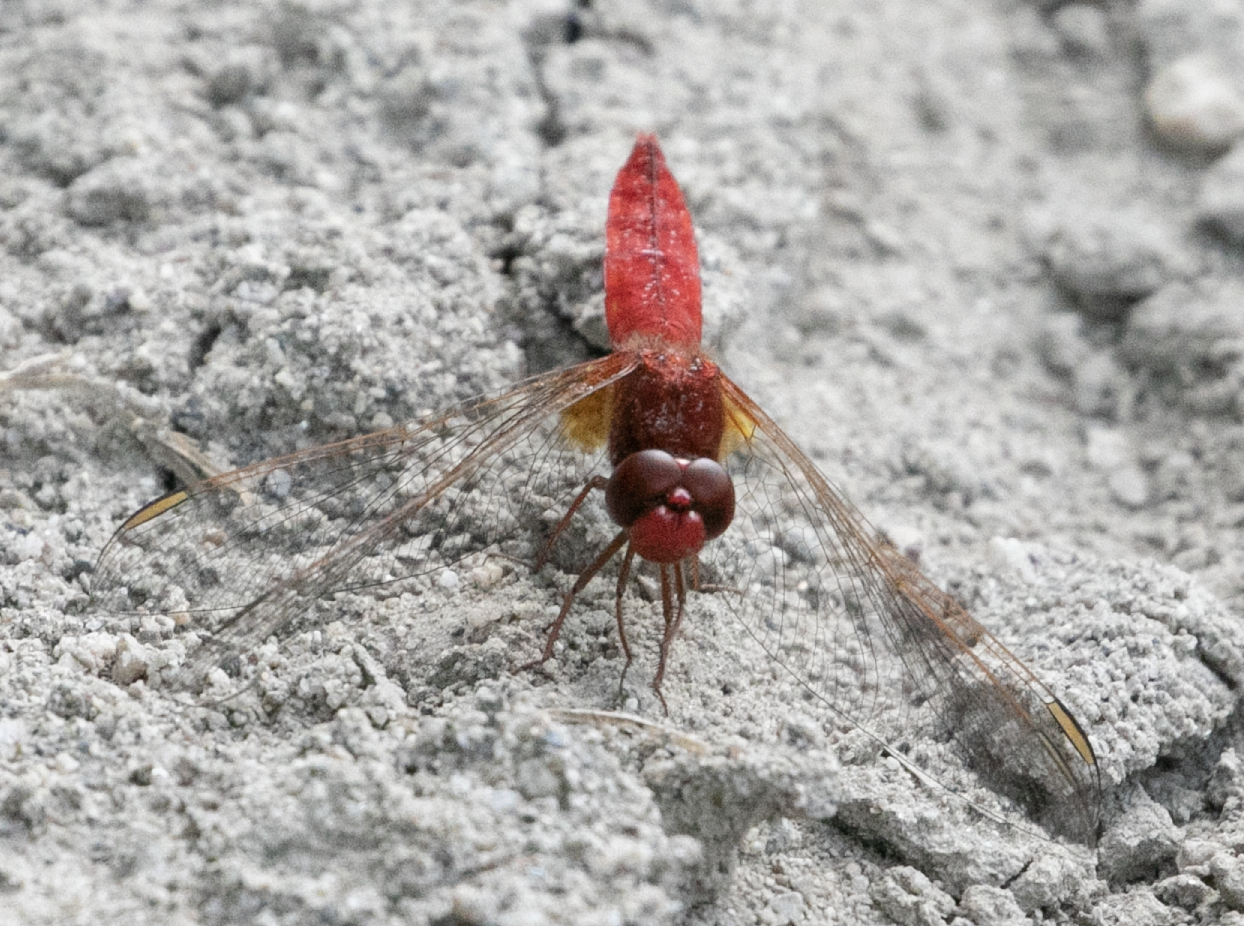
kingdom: Animalia
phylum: Arthropoda
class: Insecta
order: Odonata
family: Libellulidae
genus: Crocothemis
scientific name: Crocothemis erythraea
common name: Scarlet dragonfly
